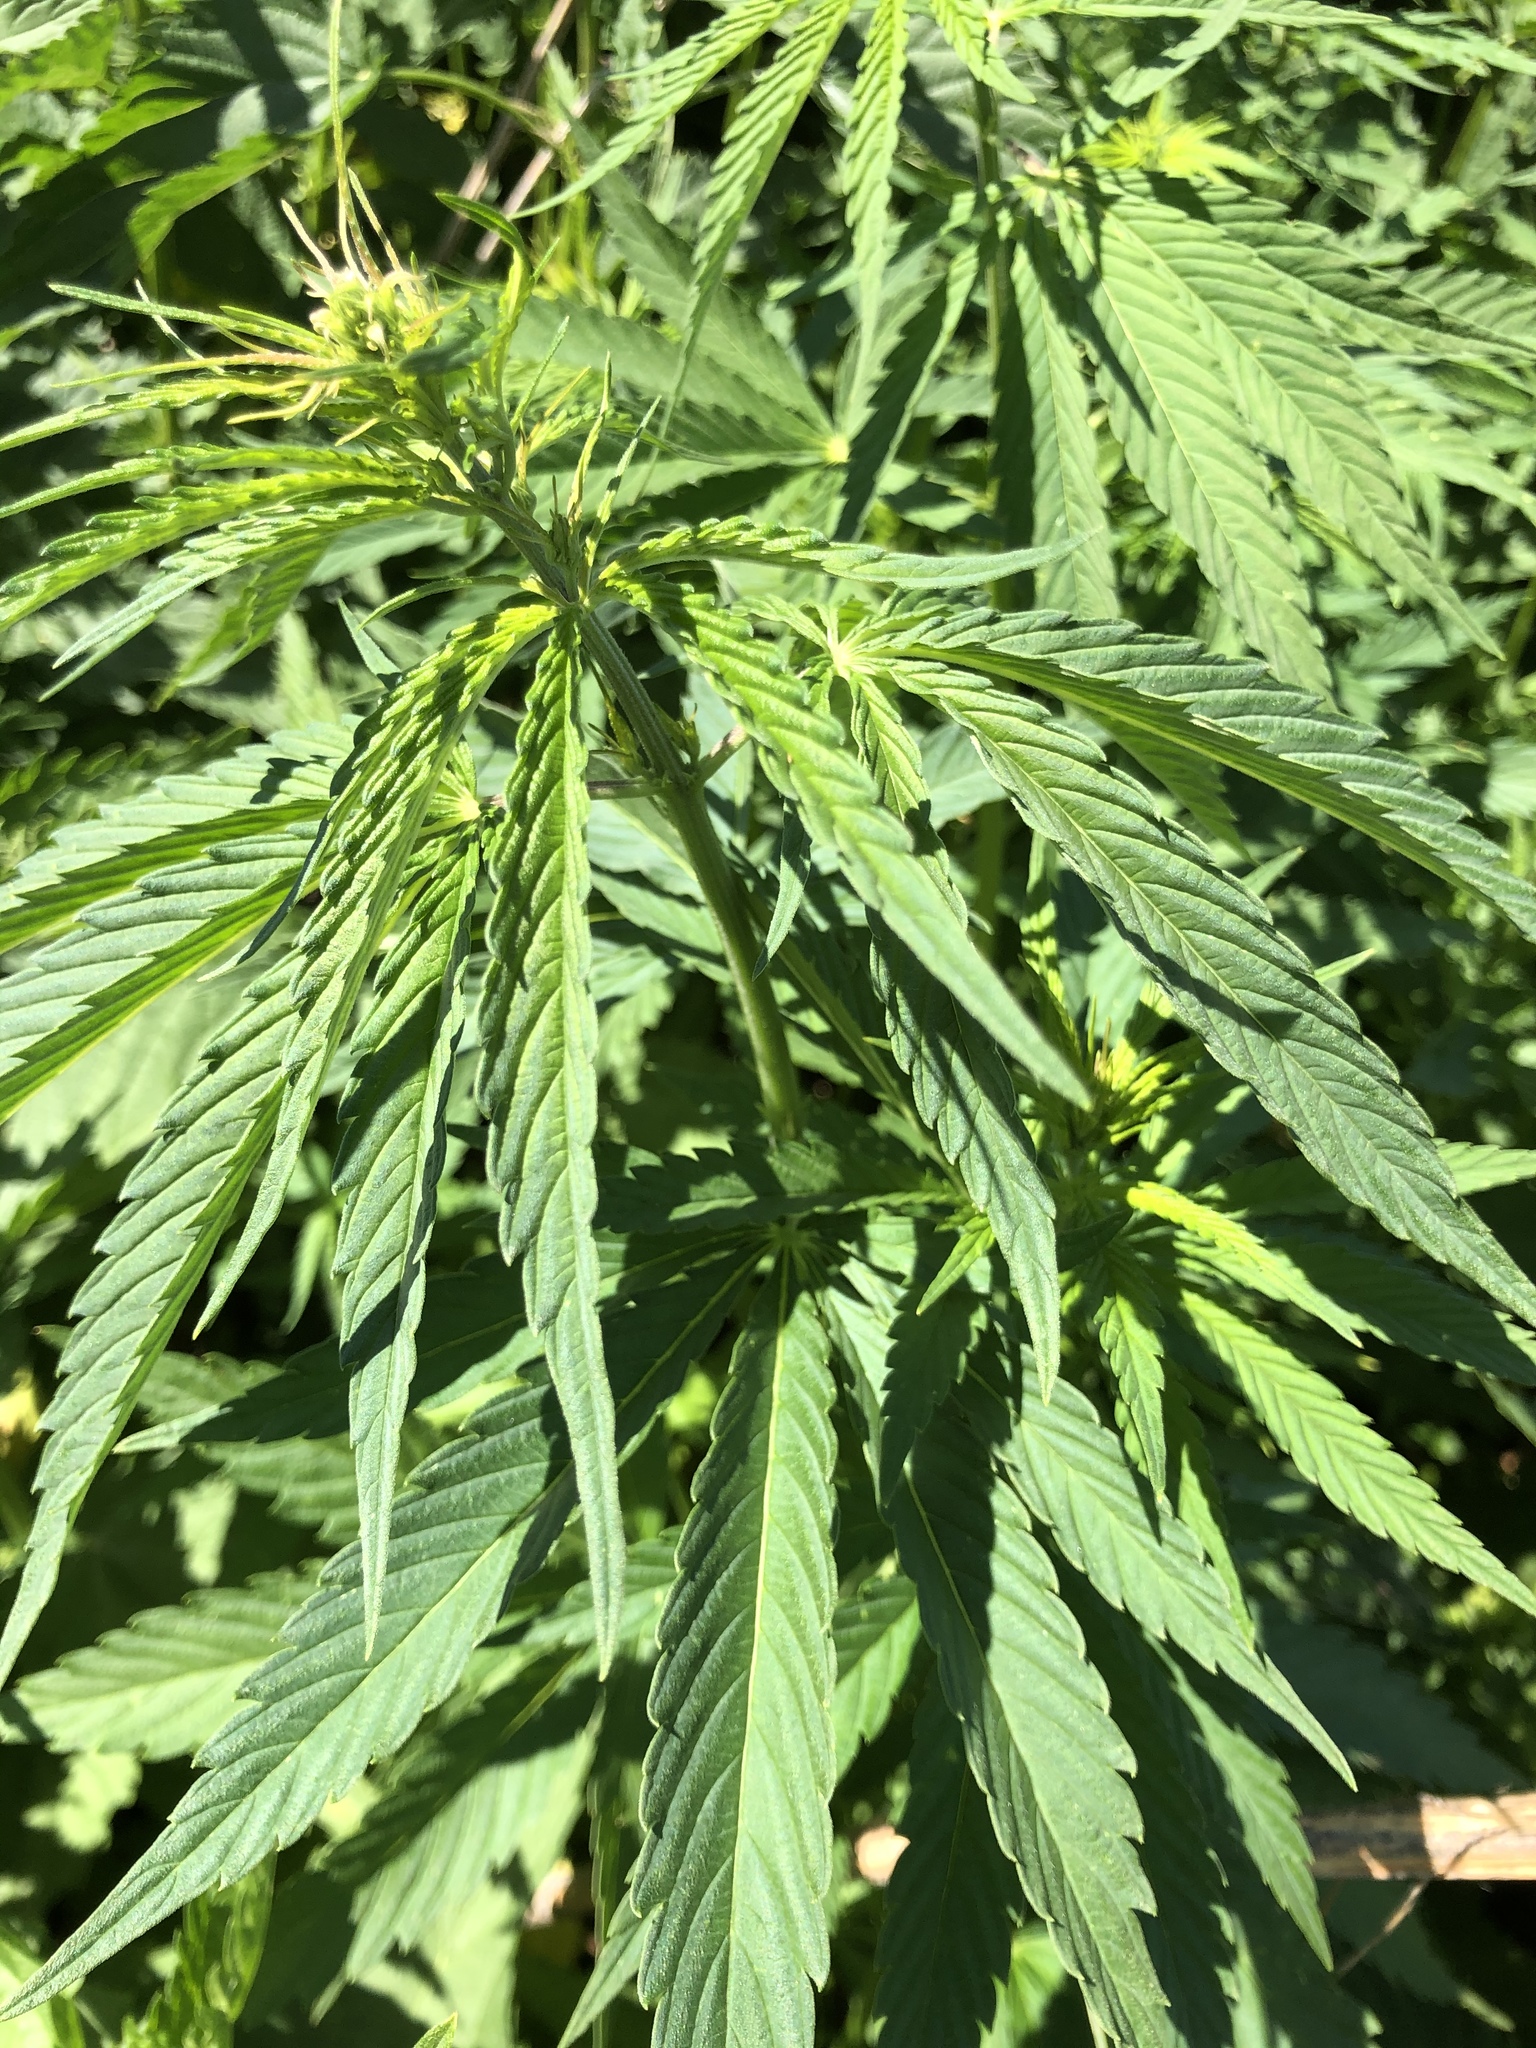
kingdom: Plantae
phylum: Tracheophyta
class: Magnoliopsida
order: Rosales
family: Cannabaceae
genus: Cannabis
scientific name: Cannabis sativa
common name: Hemp
